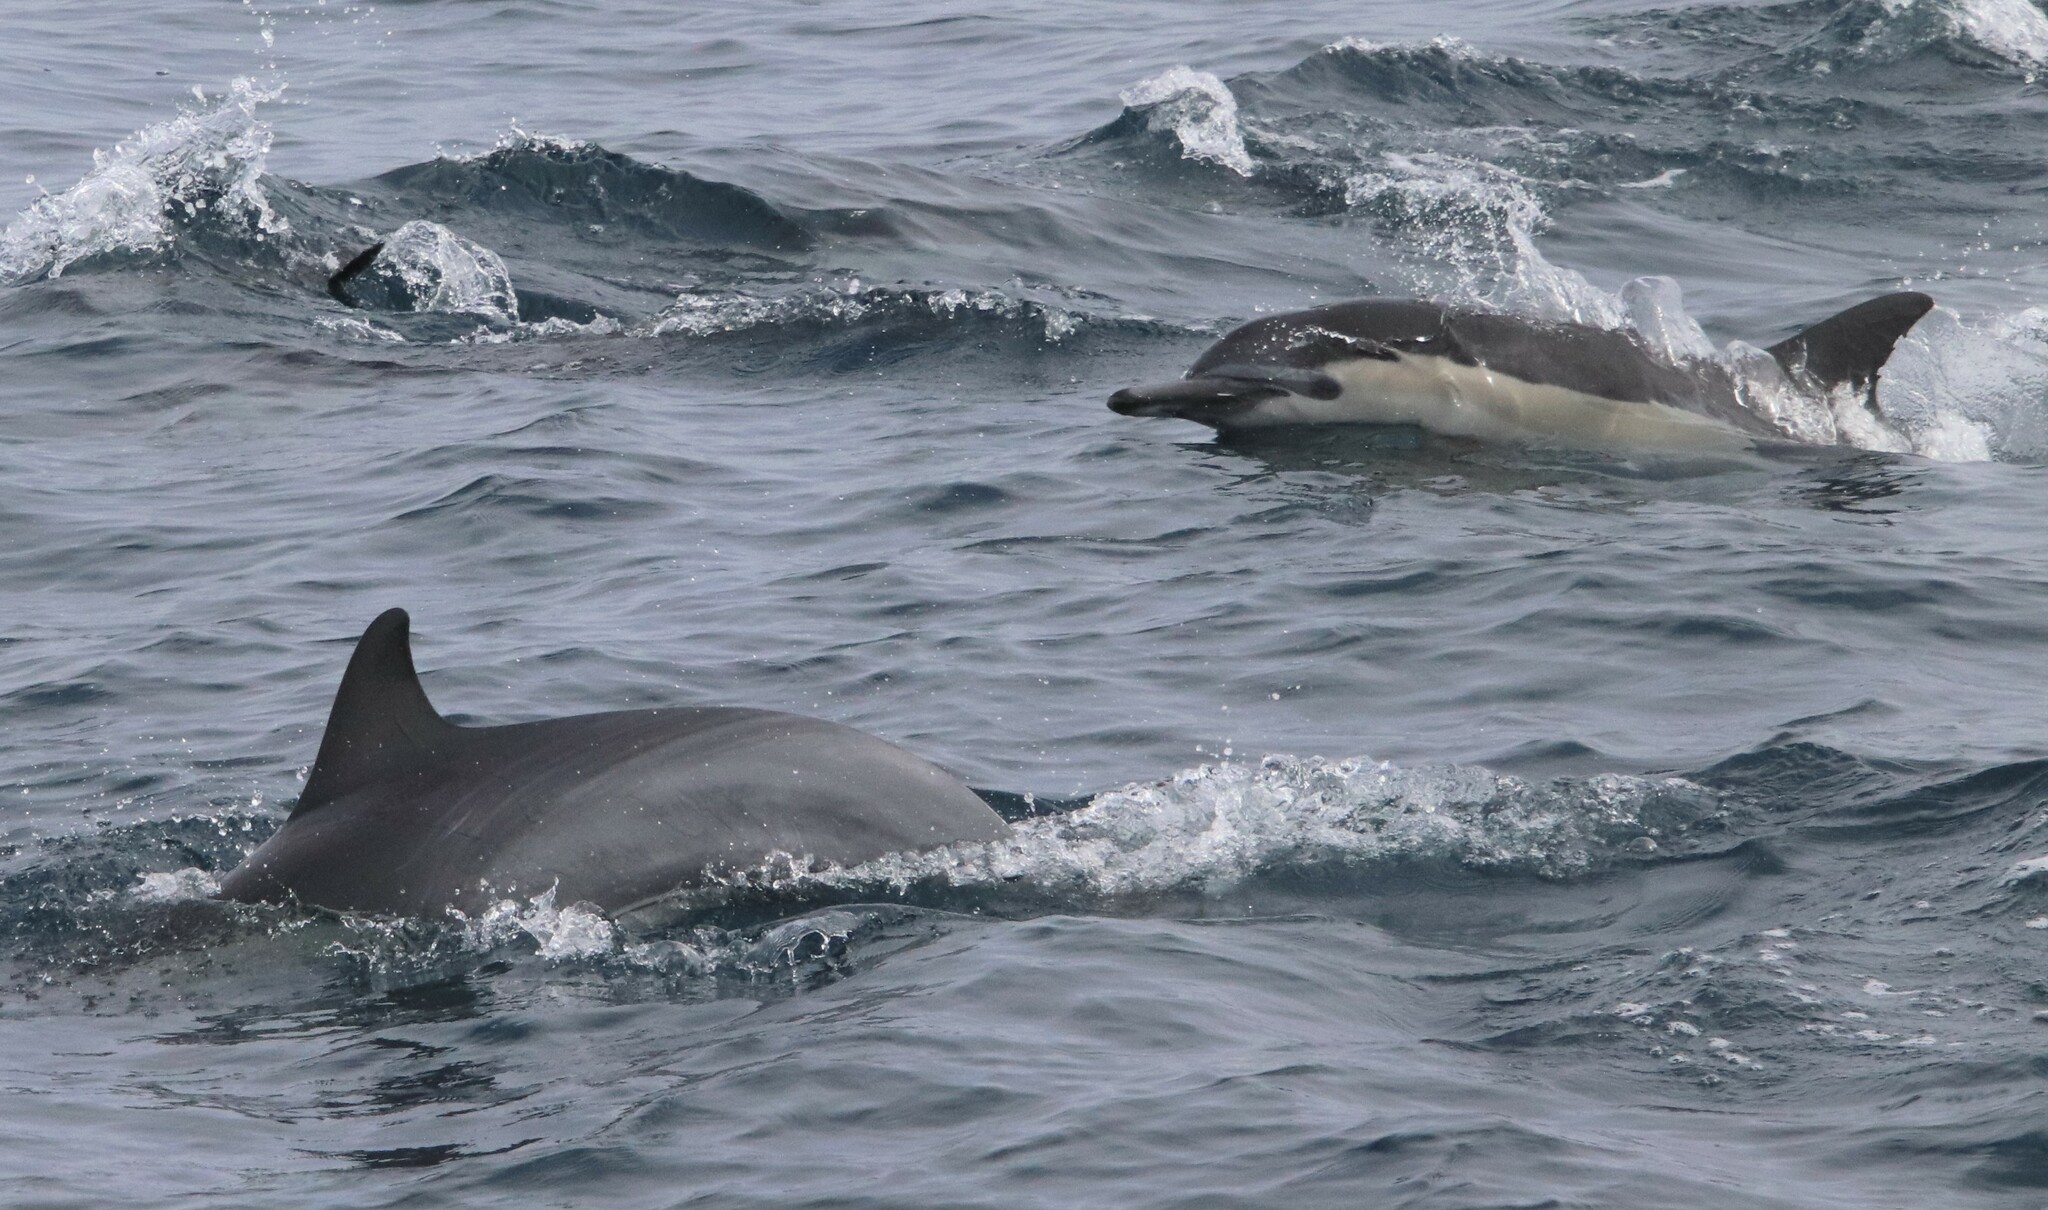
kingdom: Animalia
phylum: Chordata
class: Mammalia
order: Cetacea
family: Delphinidae
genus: Delphinus
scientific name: Delphinus delphis
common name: Common dolphin
